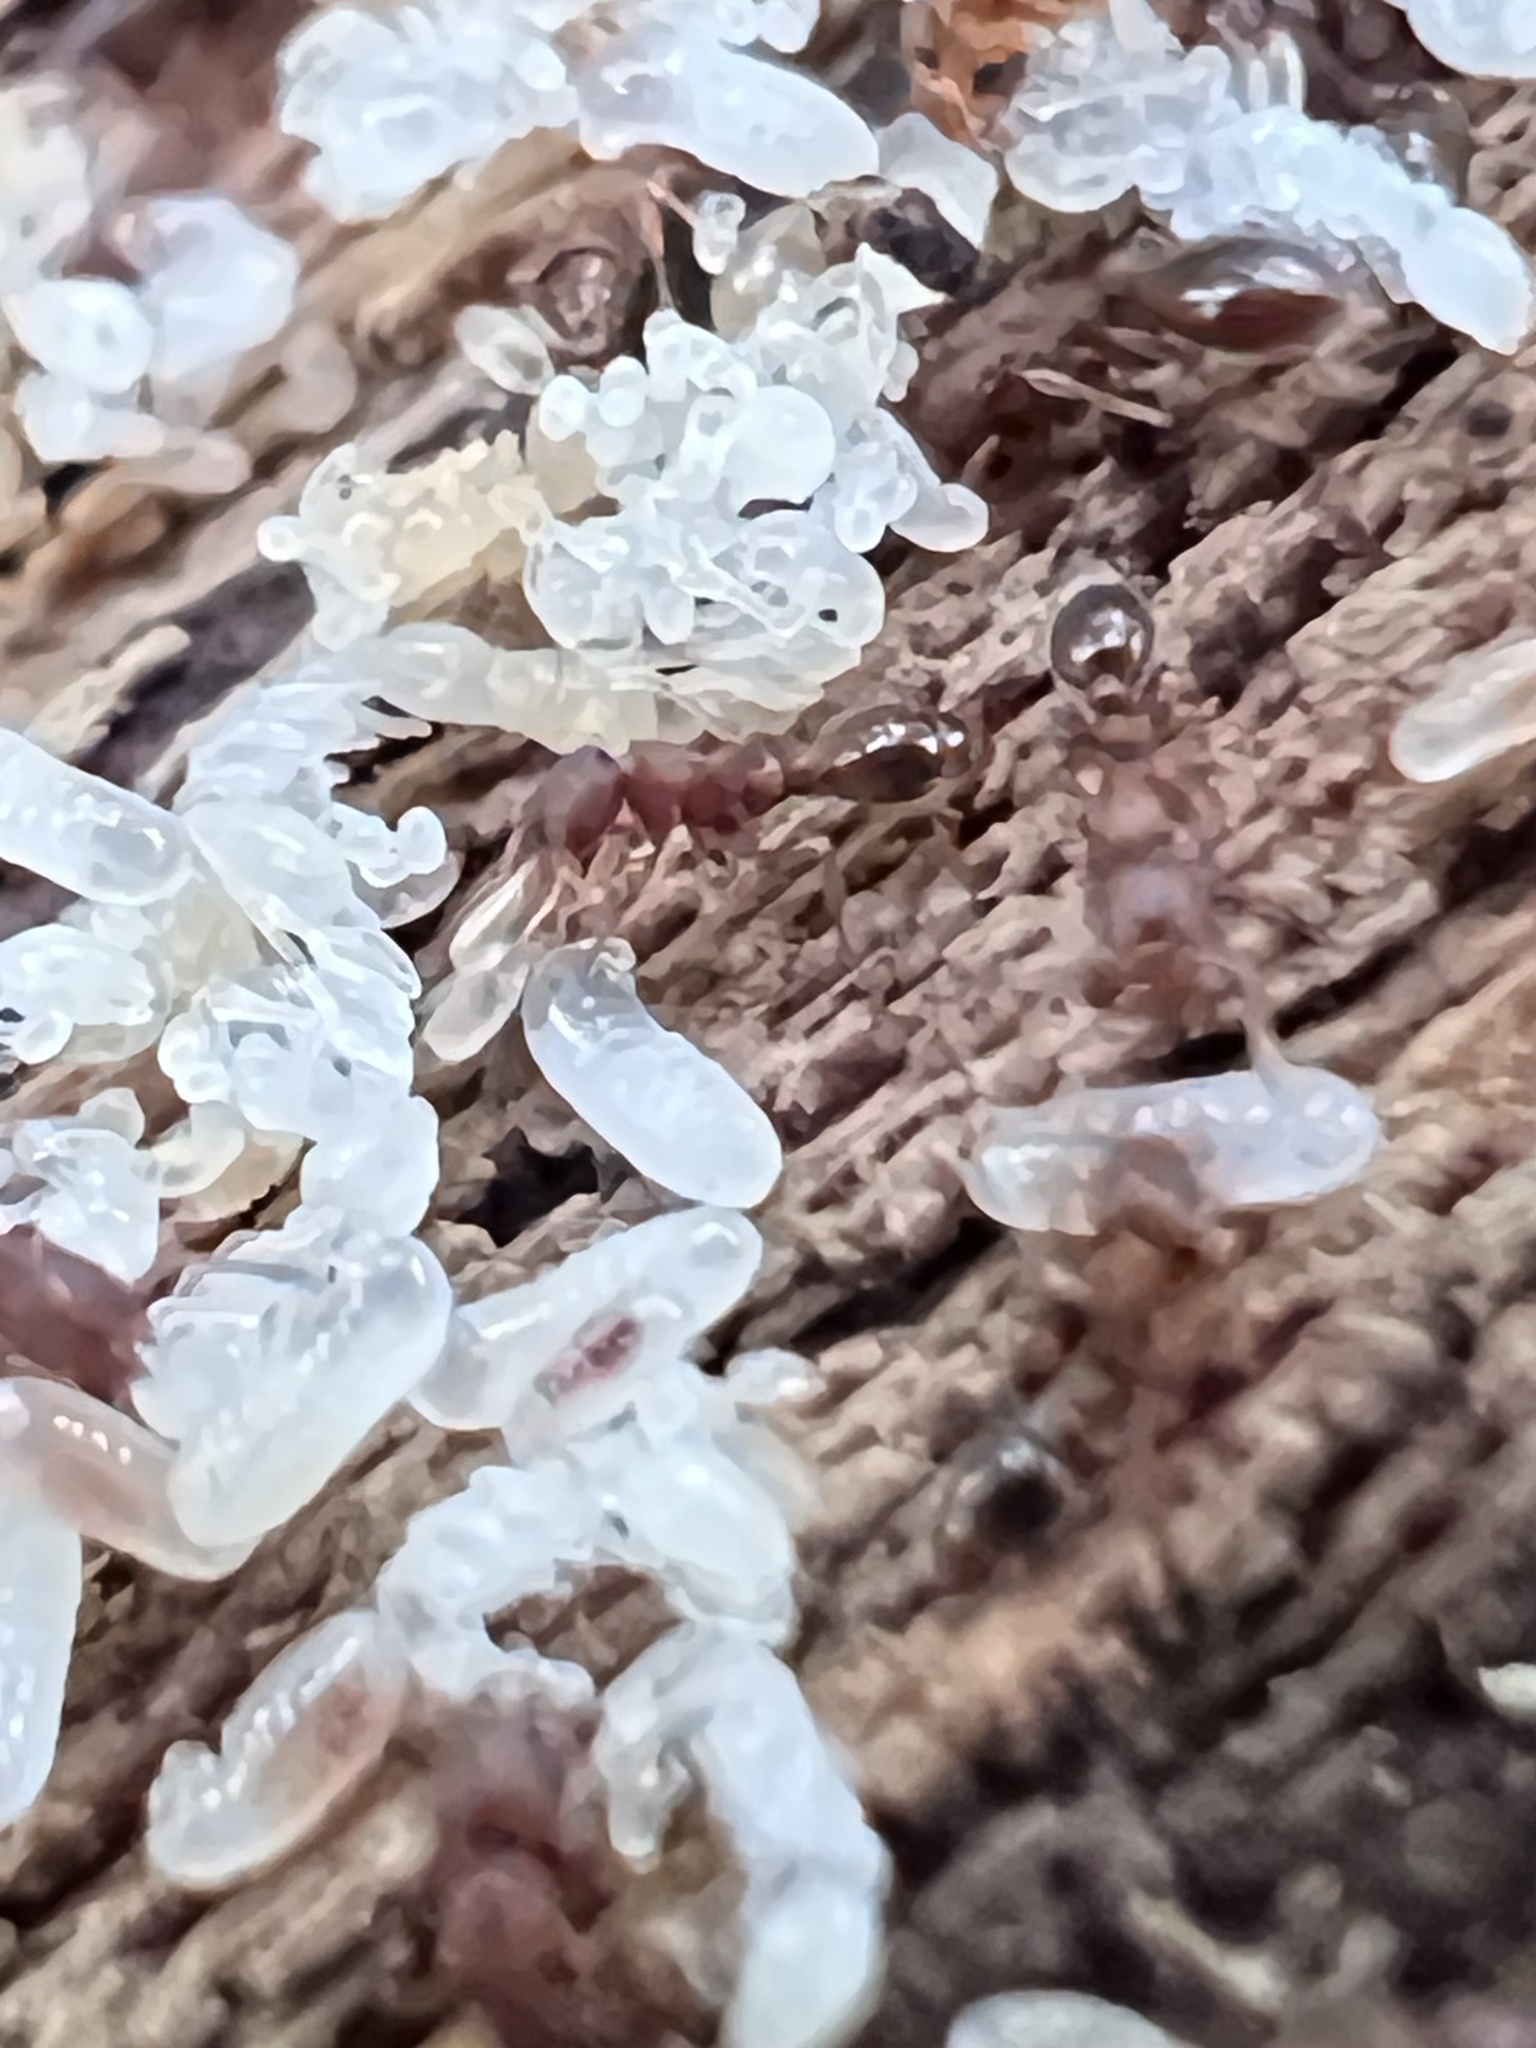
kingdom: Animalia
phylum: Arthropoda
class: Insecta
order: Hymenoptera
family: Formicidae
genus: Vollenhovia
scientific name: Vollenhovia emeryi
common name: Ant
